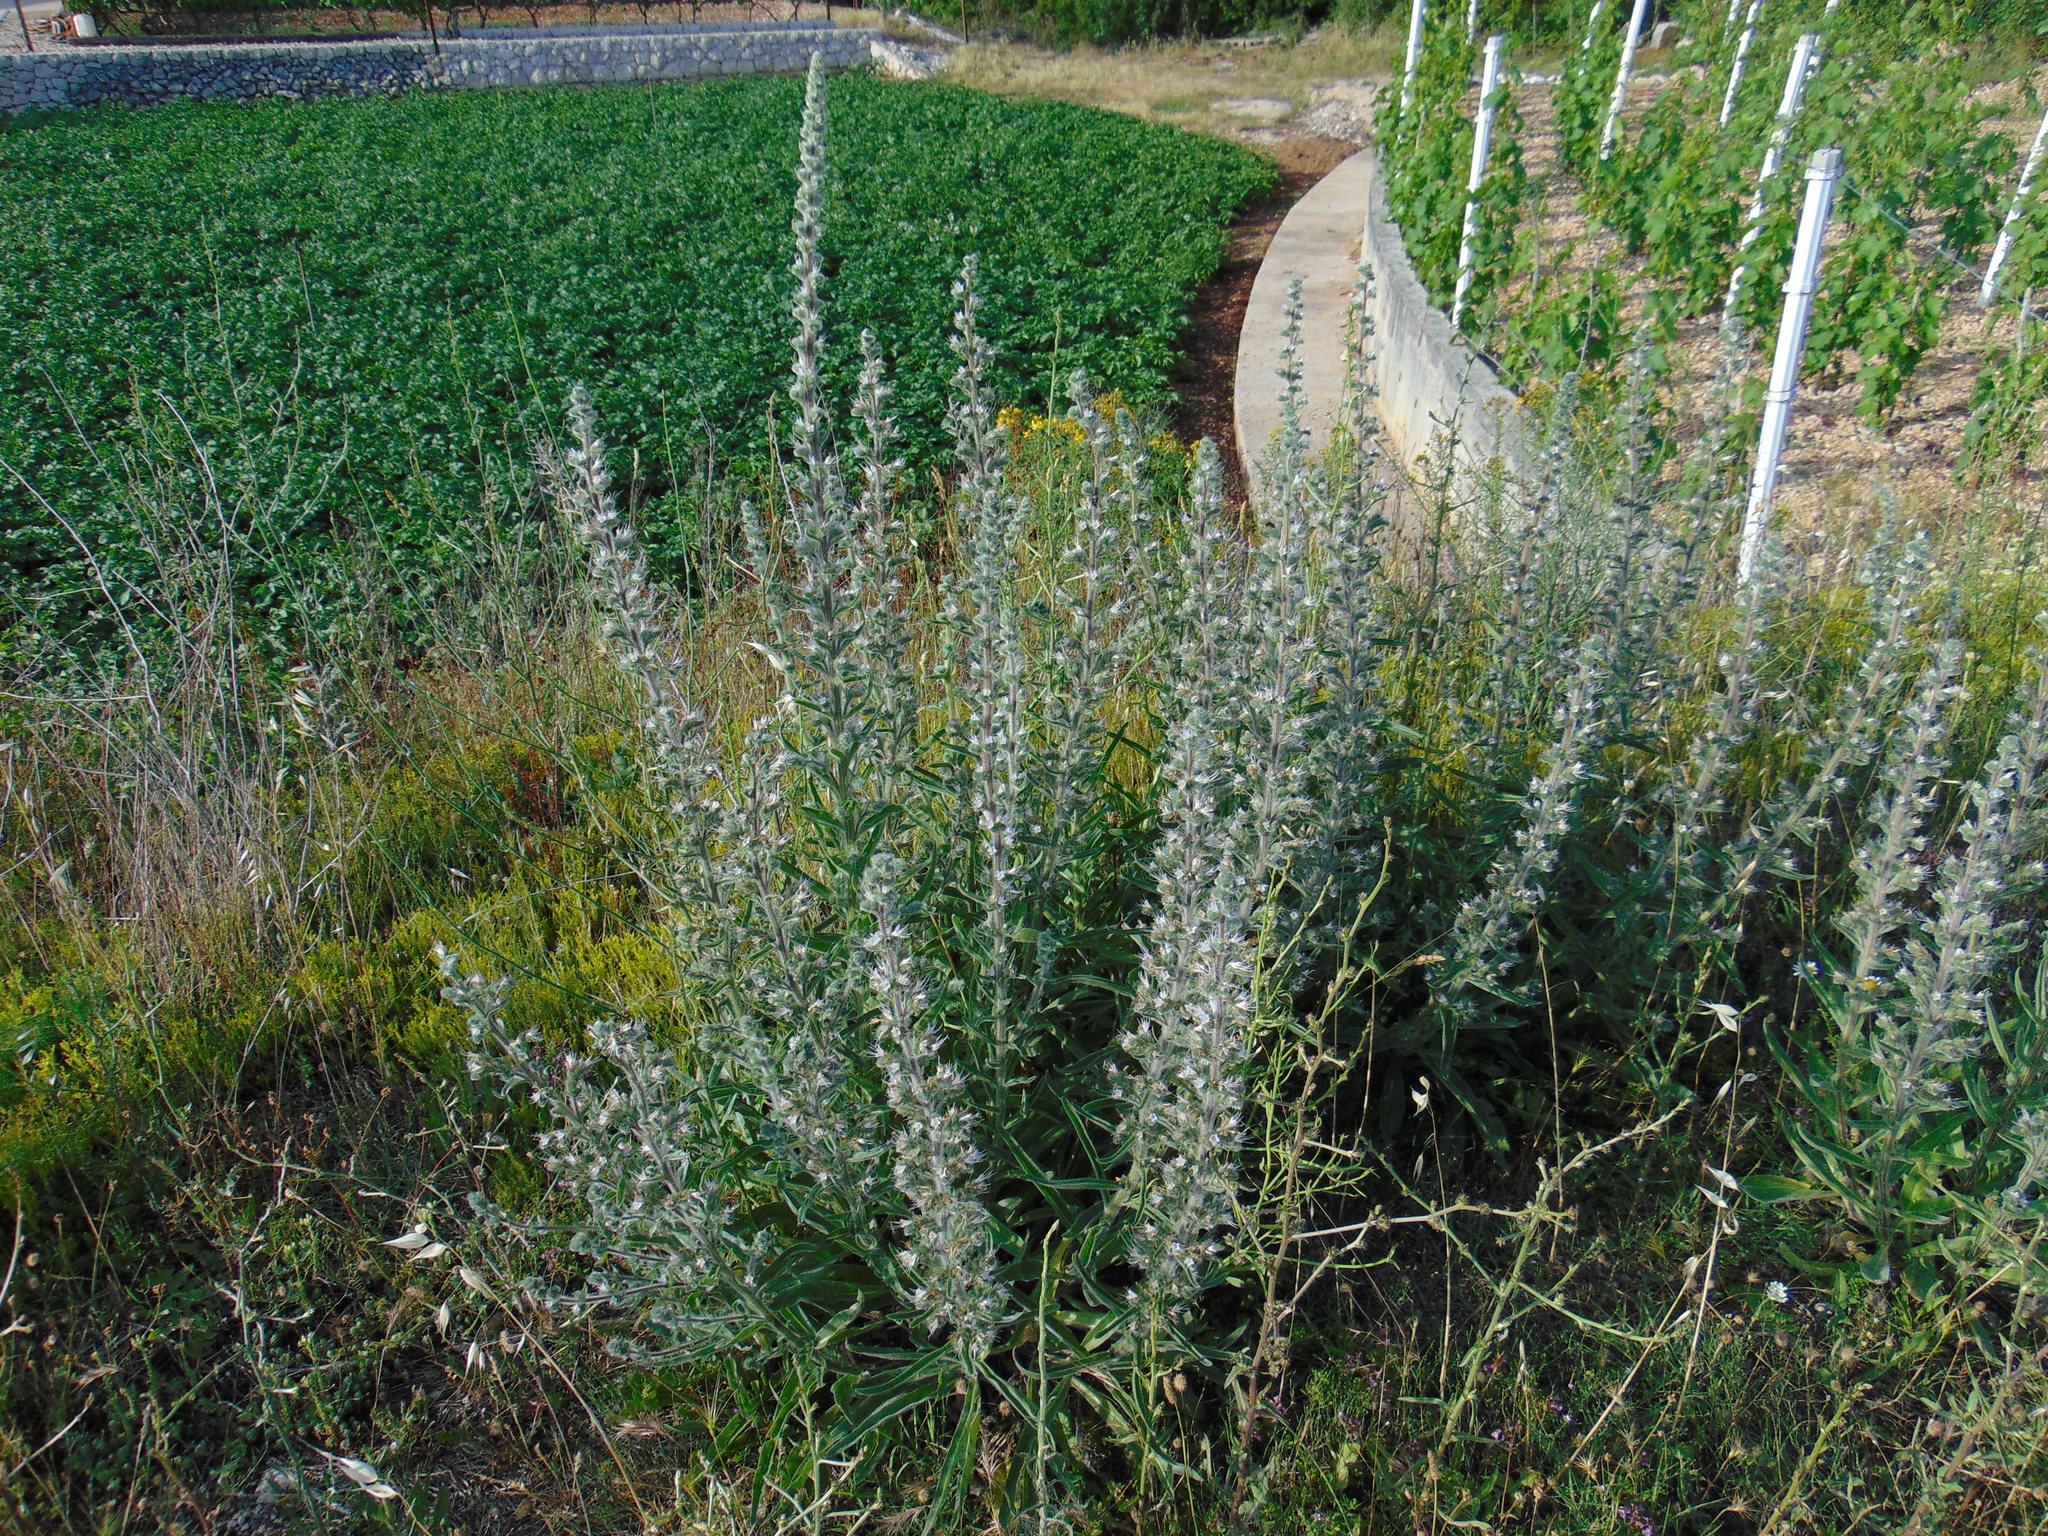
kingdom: Plantae
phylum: Tracheophyta
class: Magnoliopsida
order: Boraginales
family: Boraginaceae
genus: Echium
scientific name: Echium italicum
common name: Italian viper's bugloss
